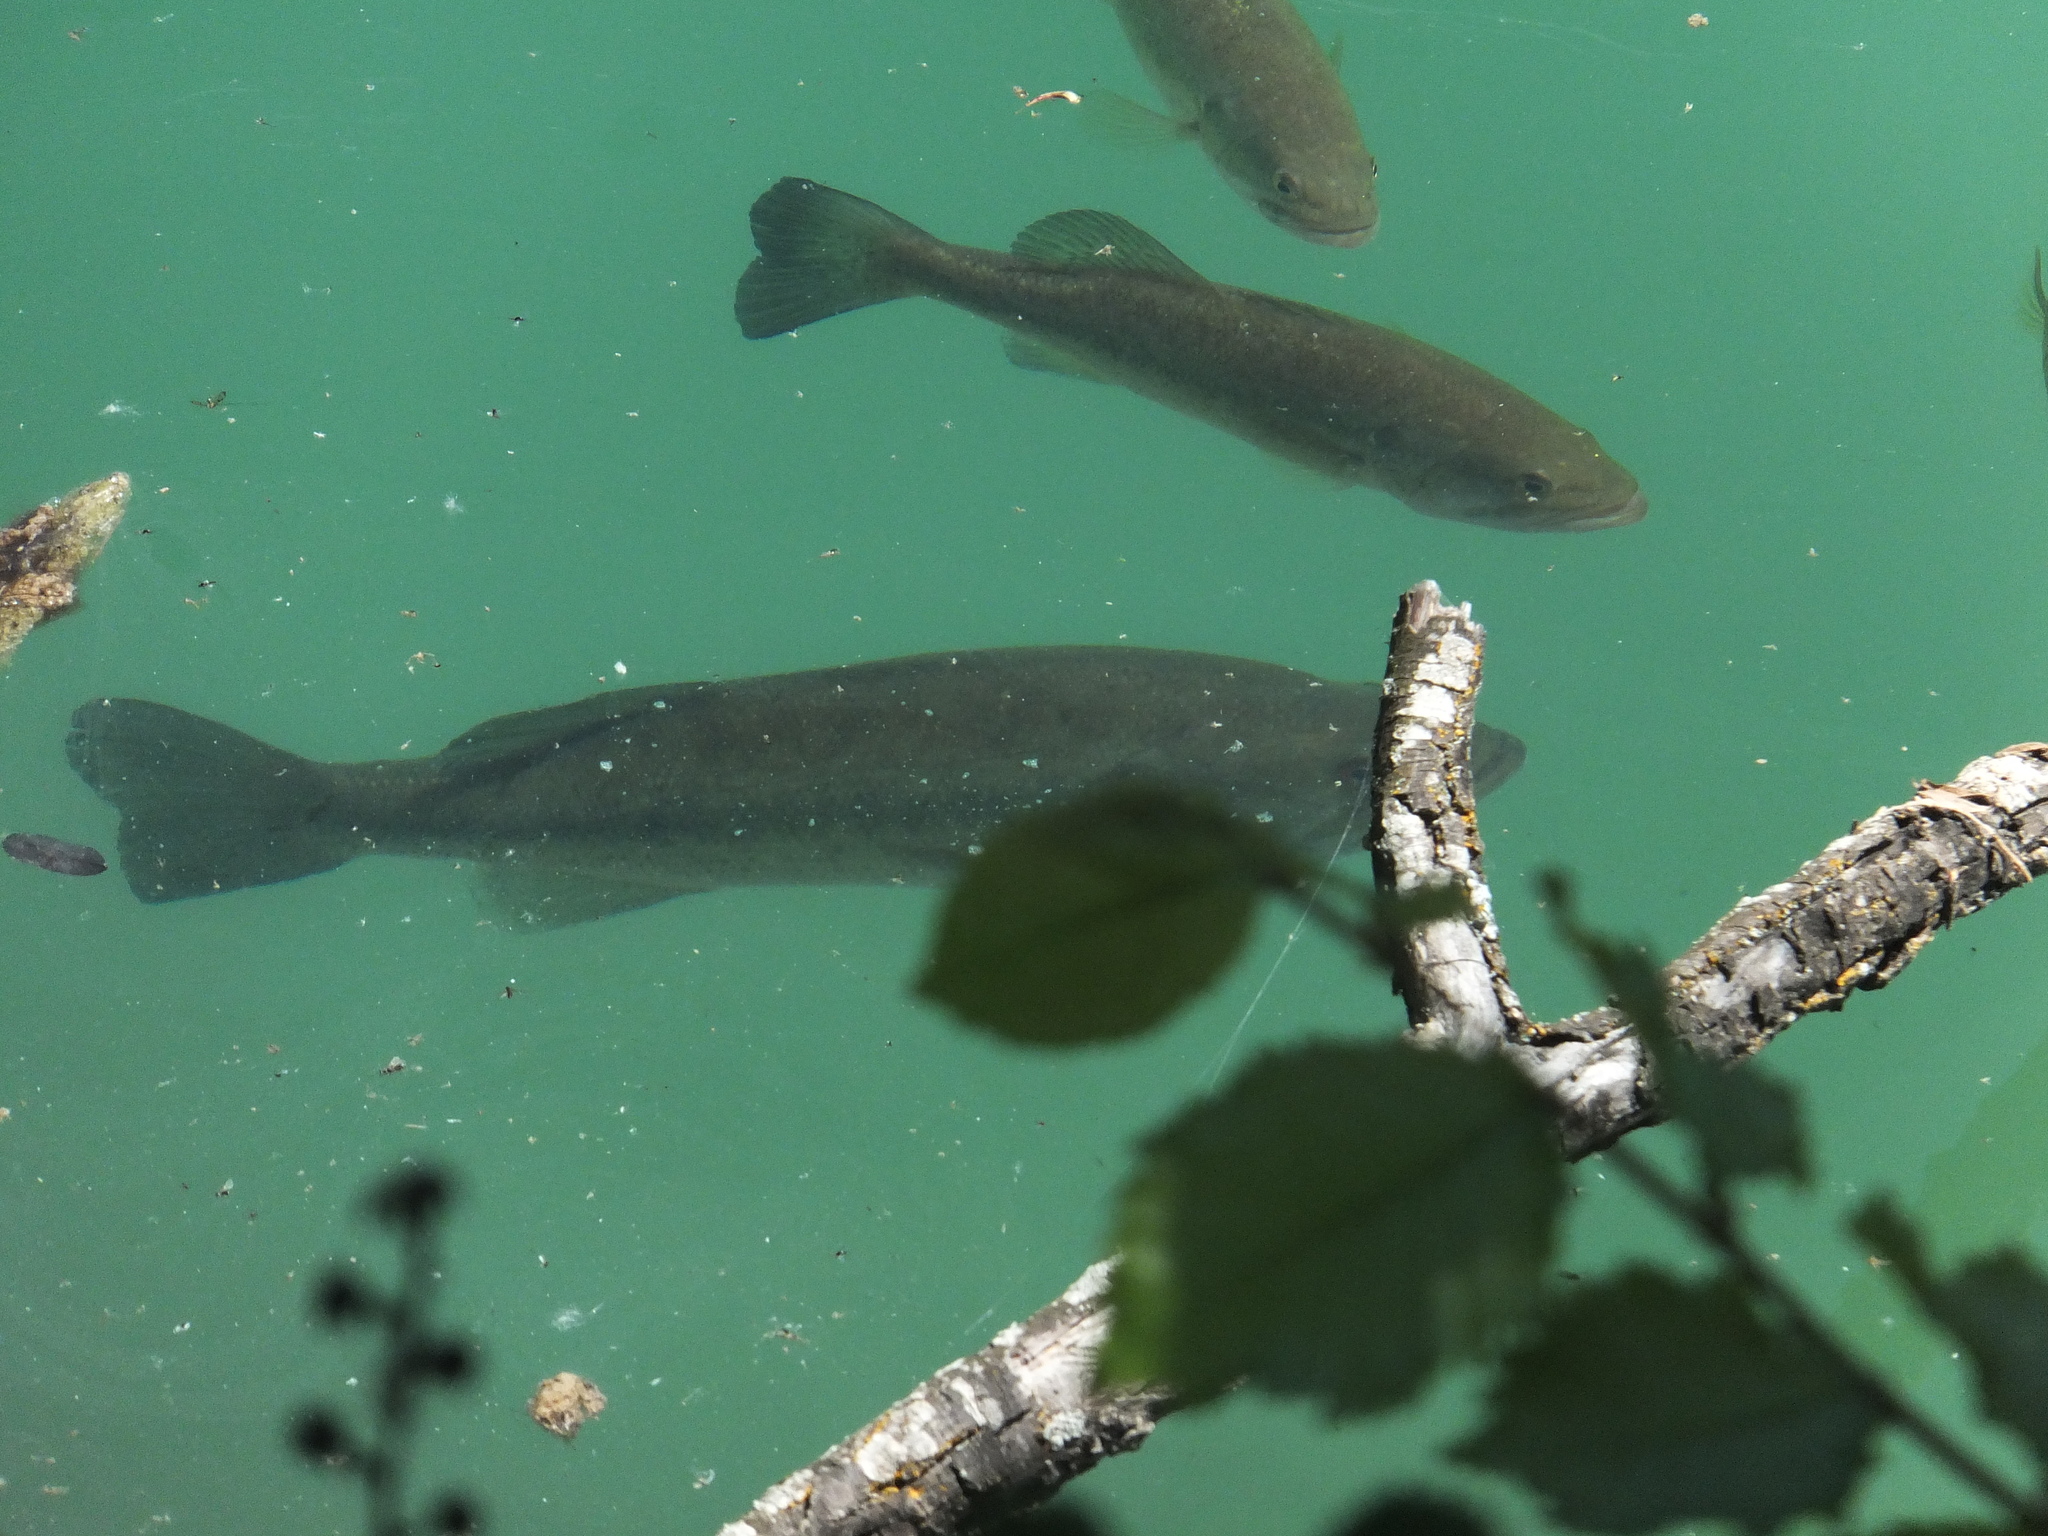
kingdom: Animalia
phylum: Chordata
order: Perciformes
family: Centrarchidae
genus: Micropterus
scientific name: Micropterus
